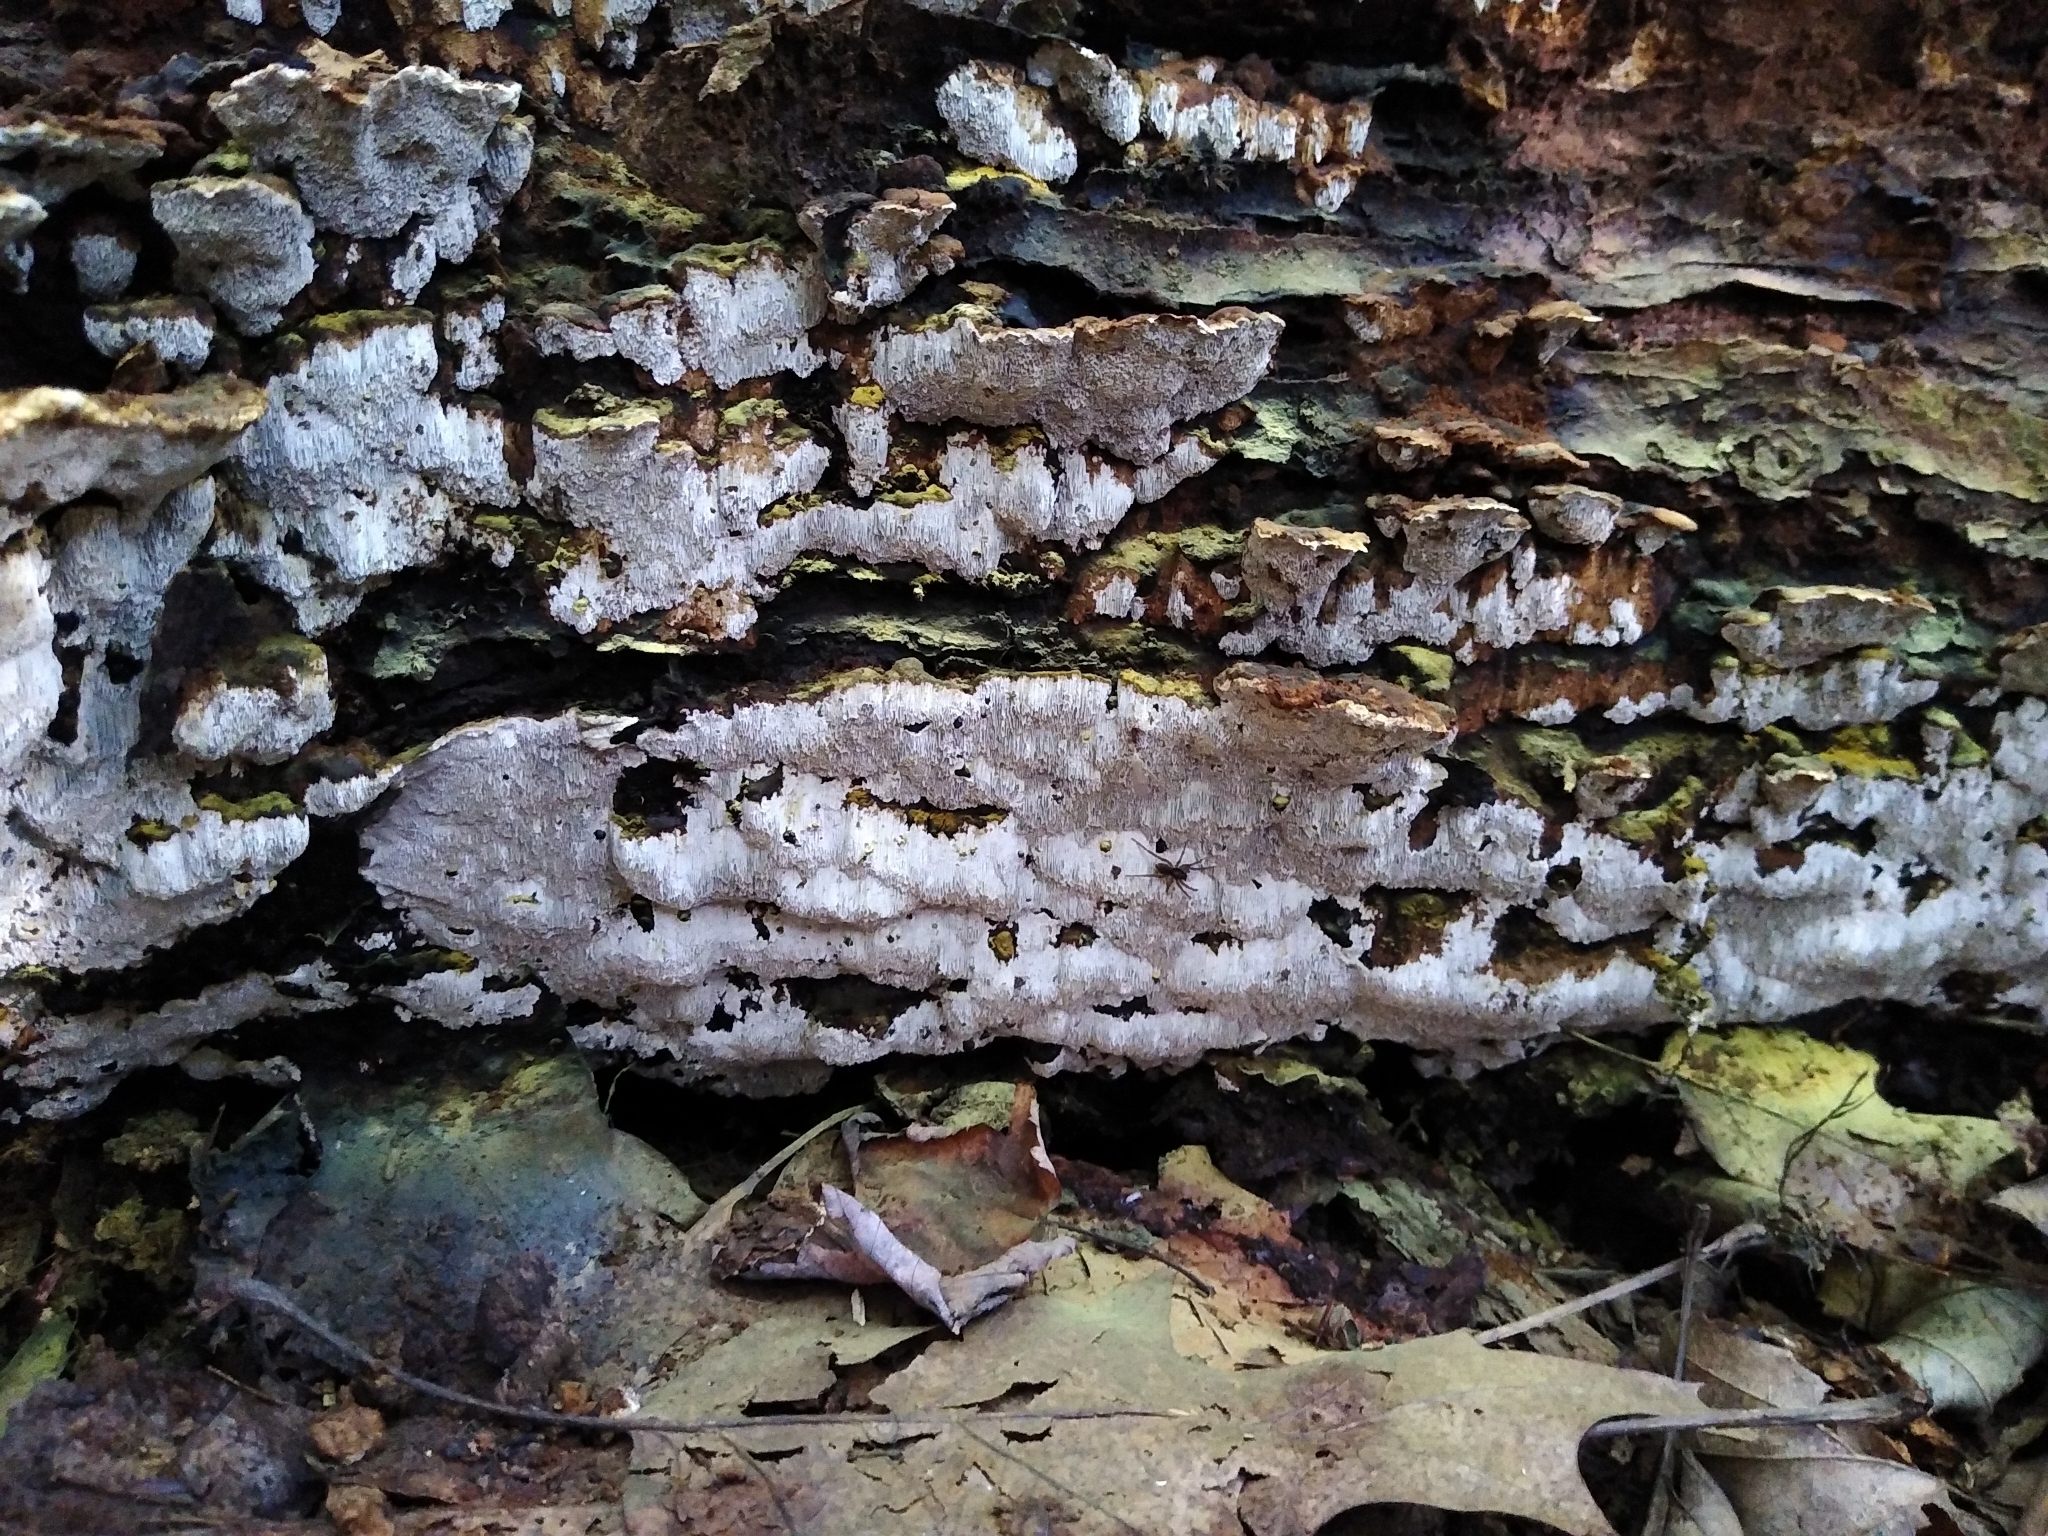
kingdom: Fungi
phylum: Basidiomycota
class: Agaricomycetes
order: Hymenochaetales
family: Hymenochaetaceae
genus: Rigidonotus
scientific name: Rigidonotus glomeratus
